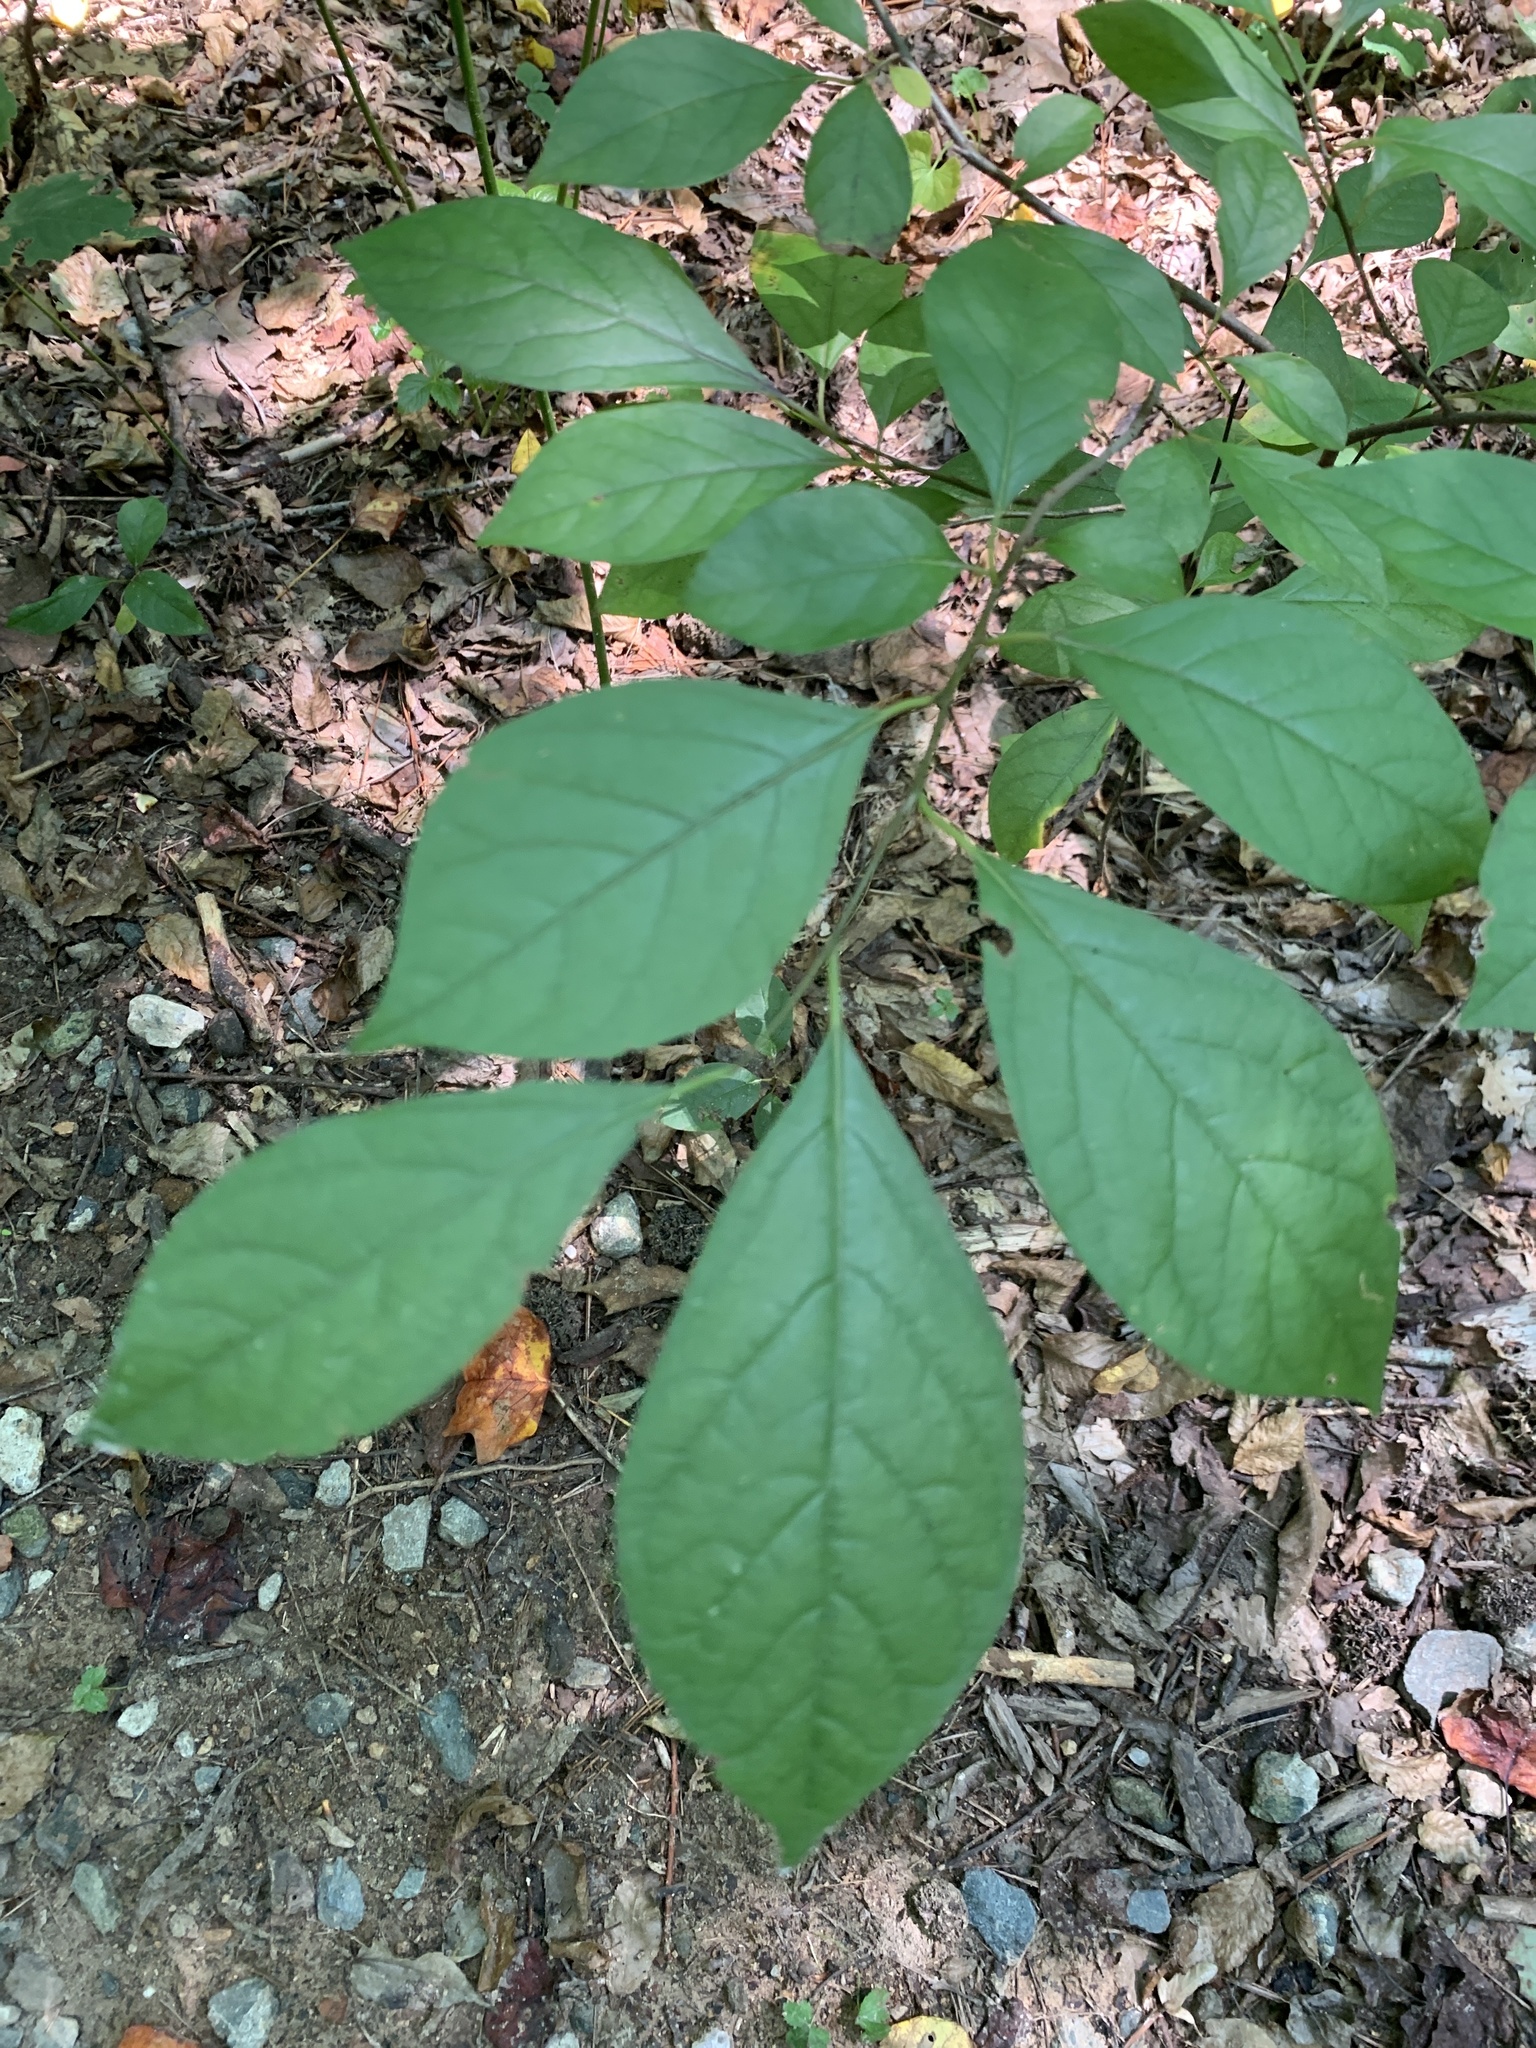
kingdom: Plantae
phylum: Tracheophyta
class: Magnoliopsida
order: Laurales
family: Lauraceae
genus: Lindera
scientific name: Lindera benzoin
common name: Spicebush
